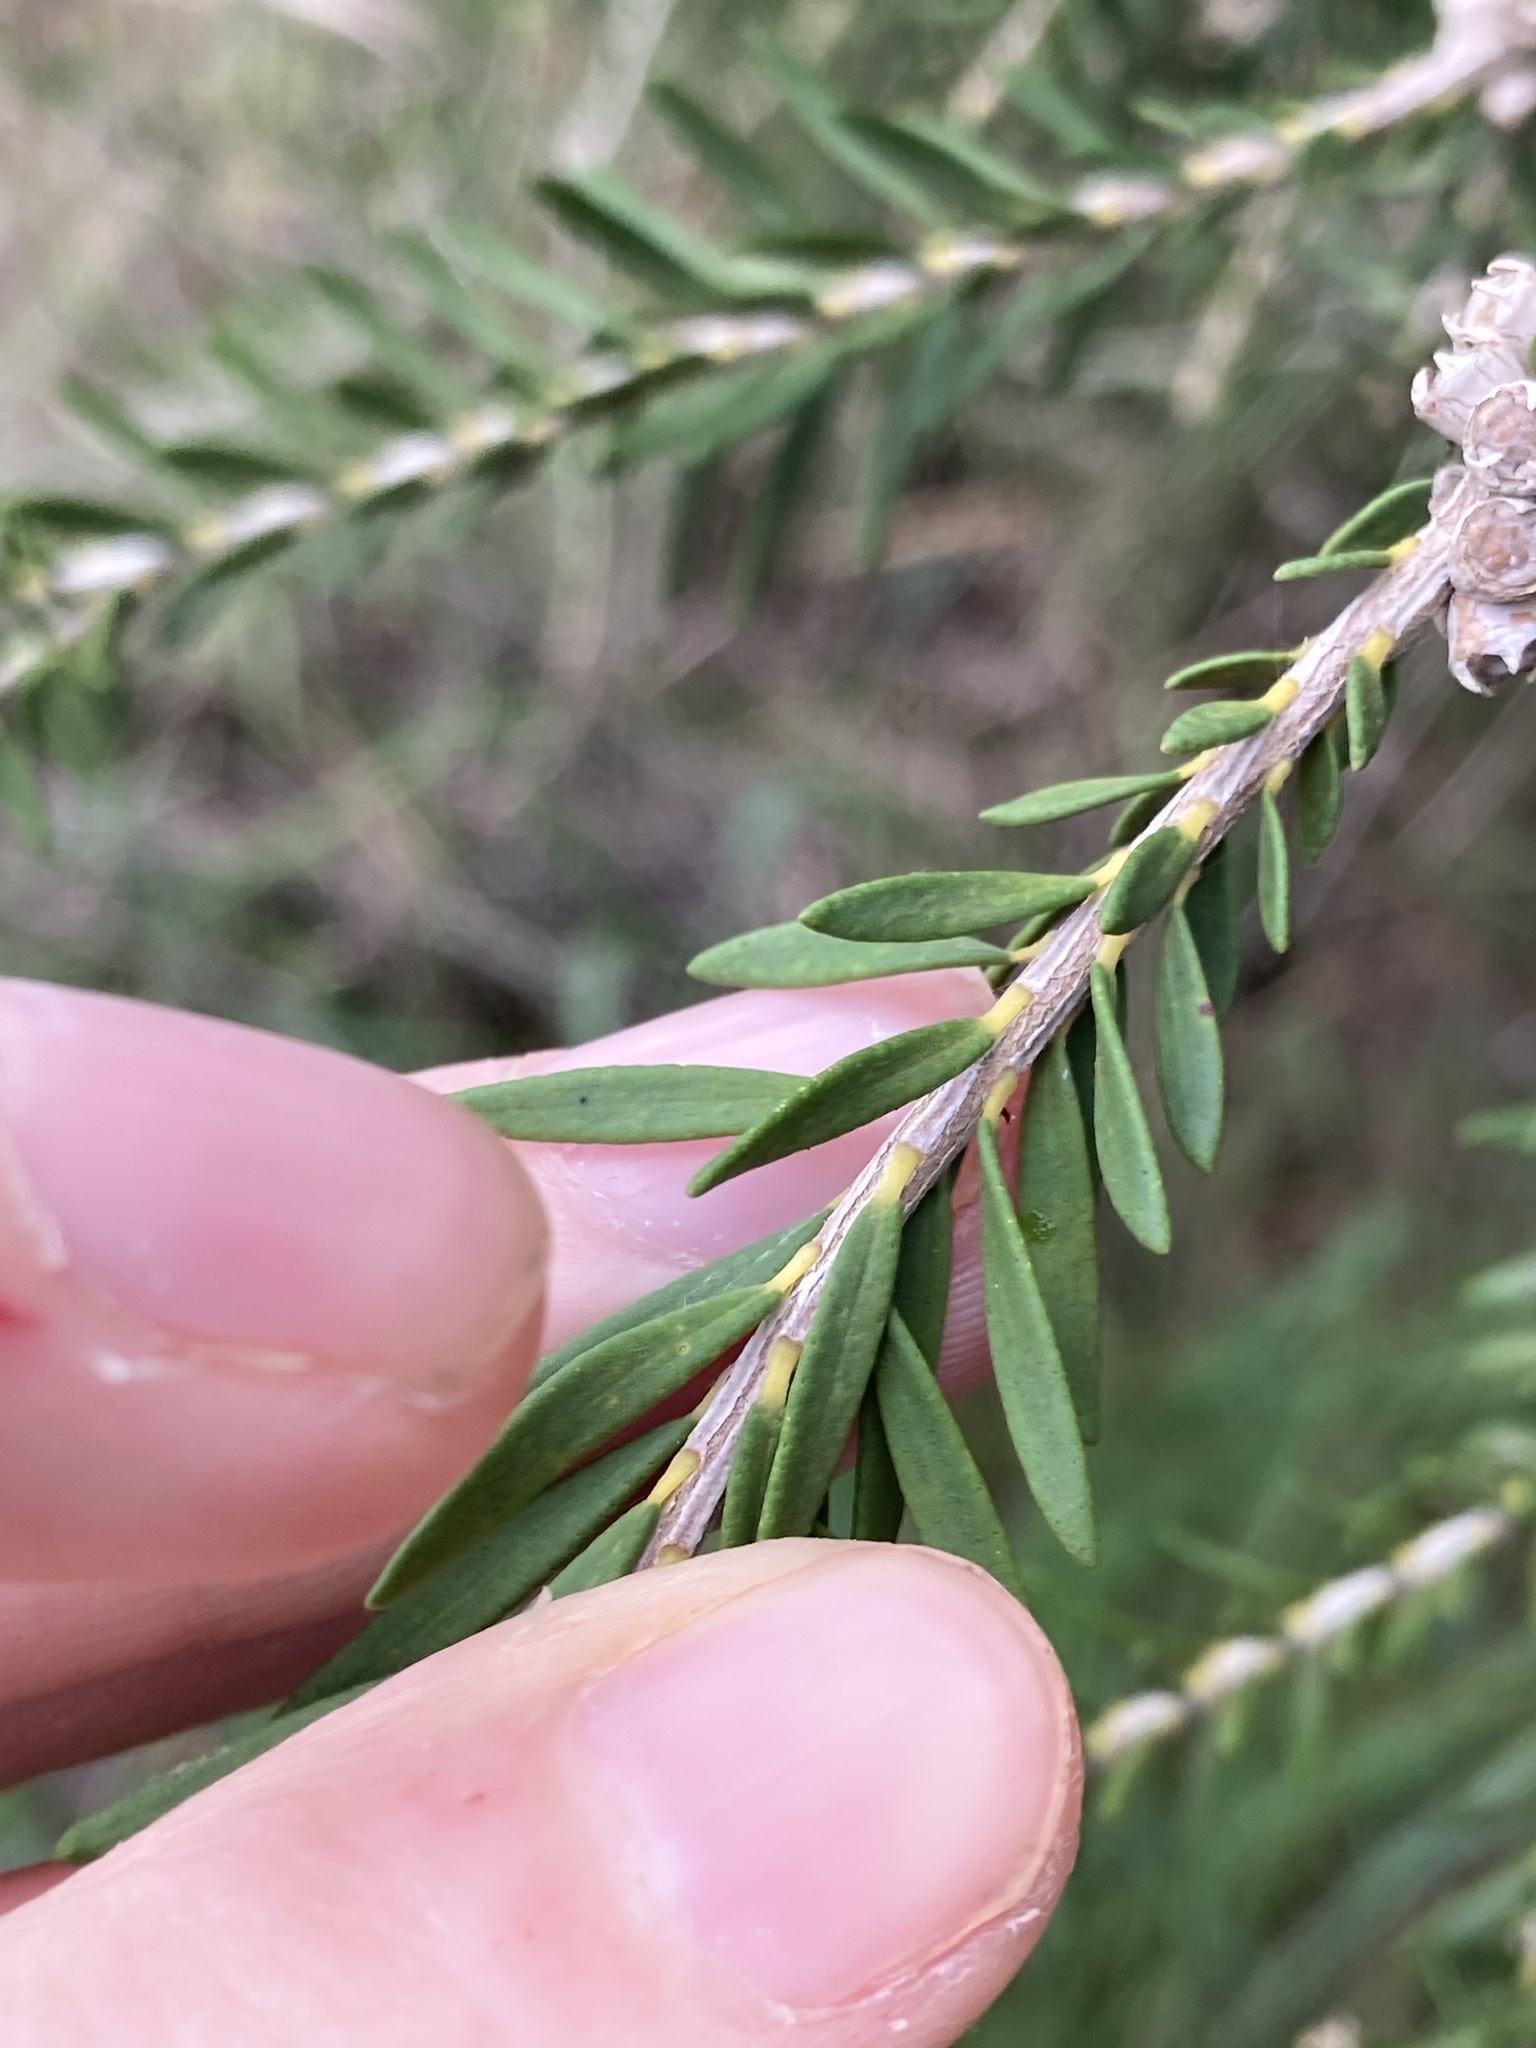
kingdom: Plantae
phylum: Tracheophyta
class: Magnoliopsida
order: Myrtales
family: Myrtaceae
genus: Melaleuca
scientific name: Melaleuca preissiana
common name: Preiss's paperbark
